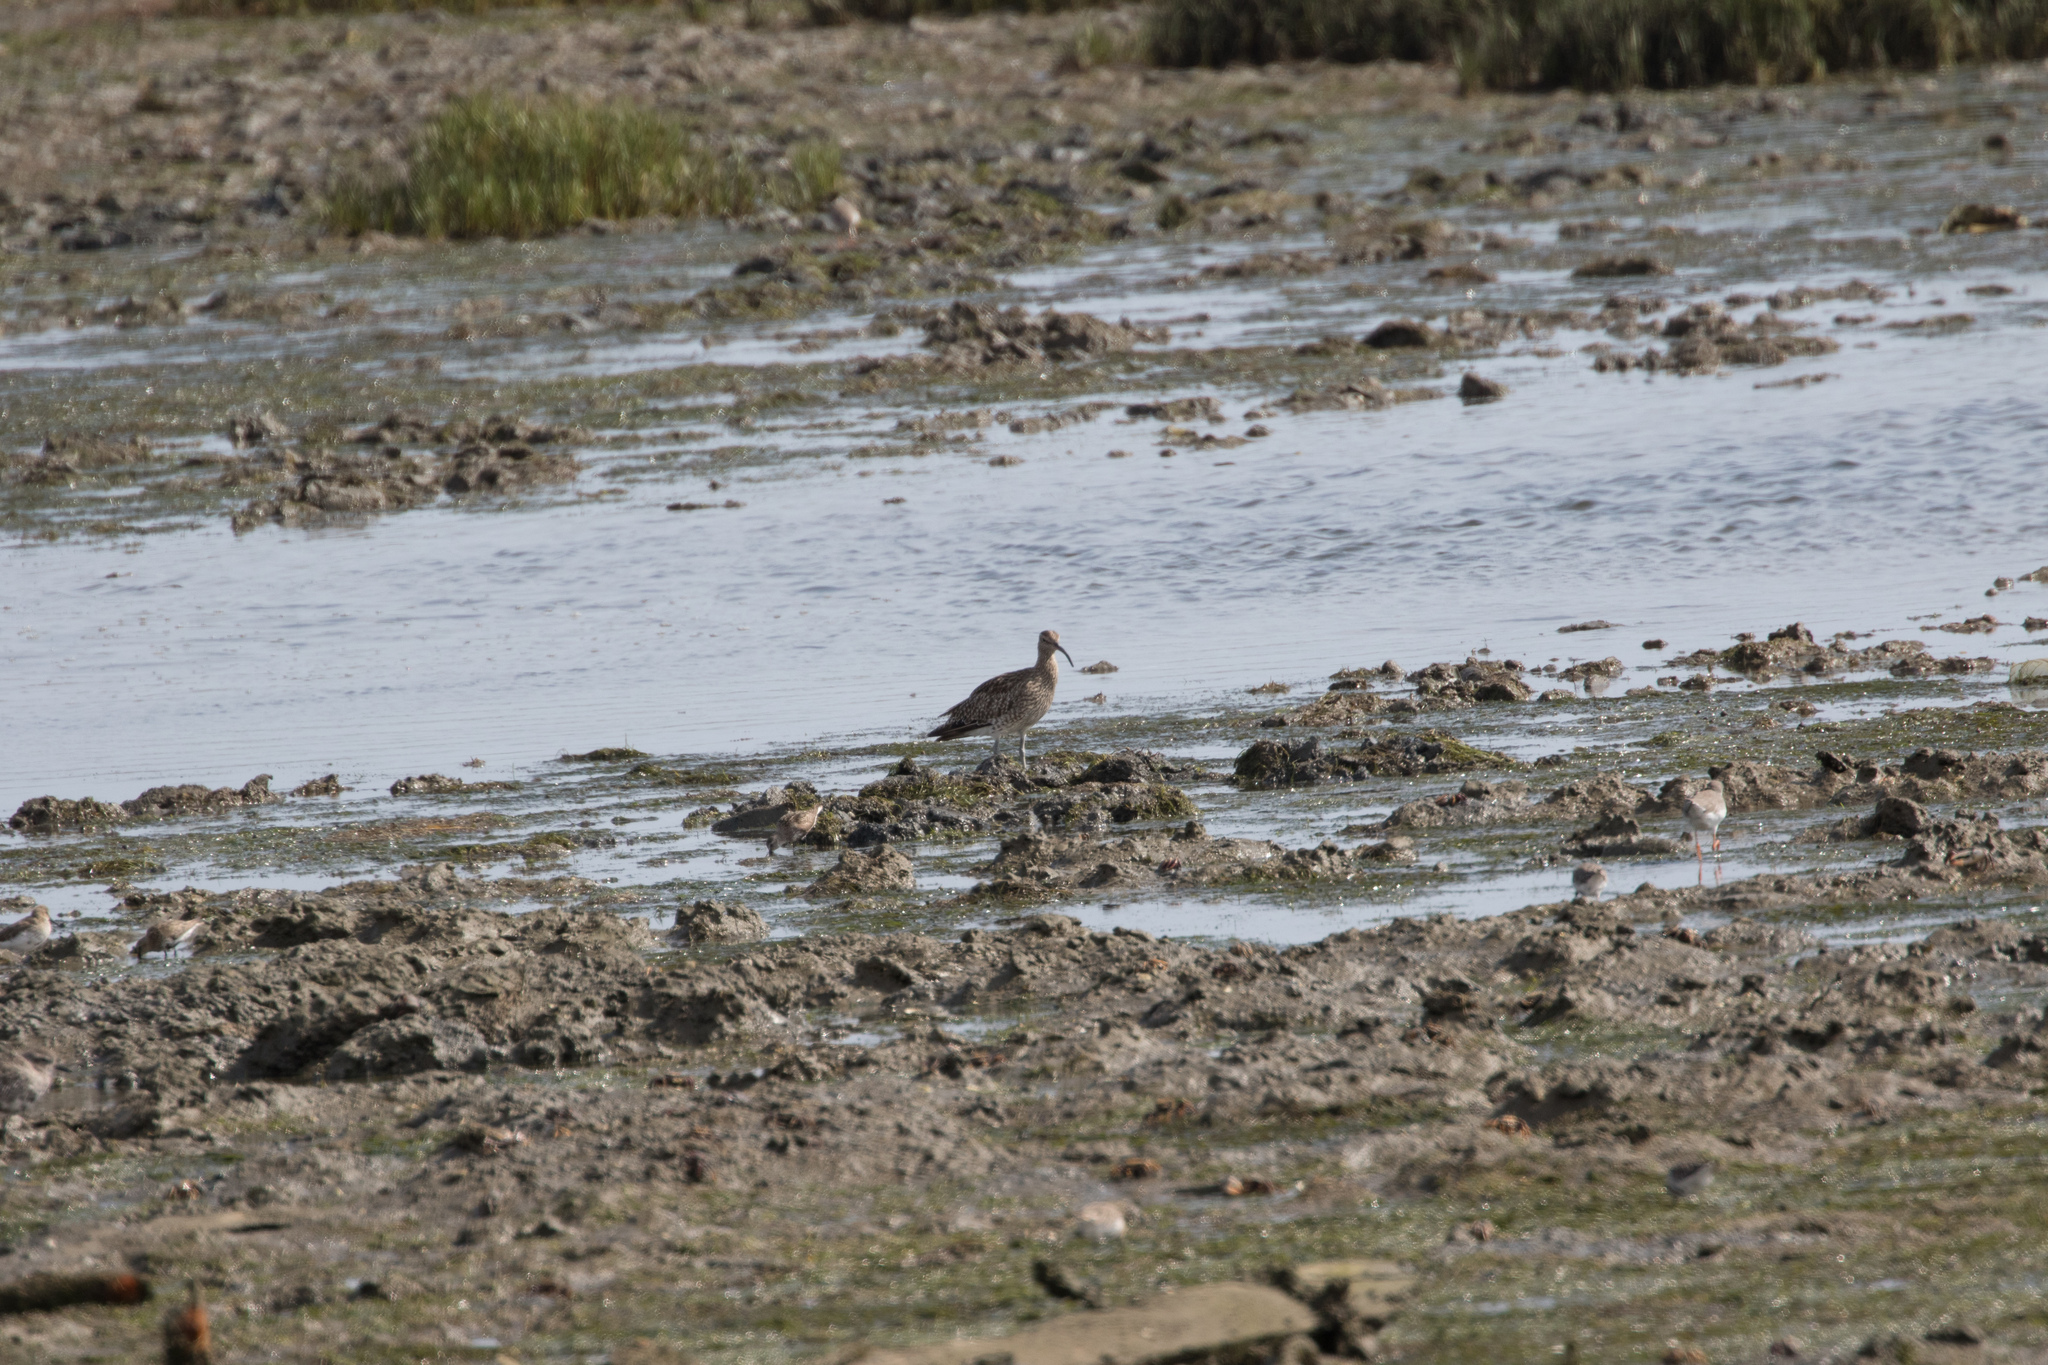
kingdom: Animalia
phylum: Chordata
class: Aves
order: Charadriiformes
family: Scolopacidae
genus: Numenius
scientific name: Numenius phaeopus
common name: Whimbrel
